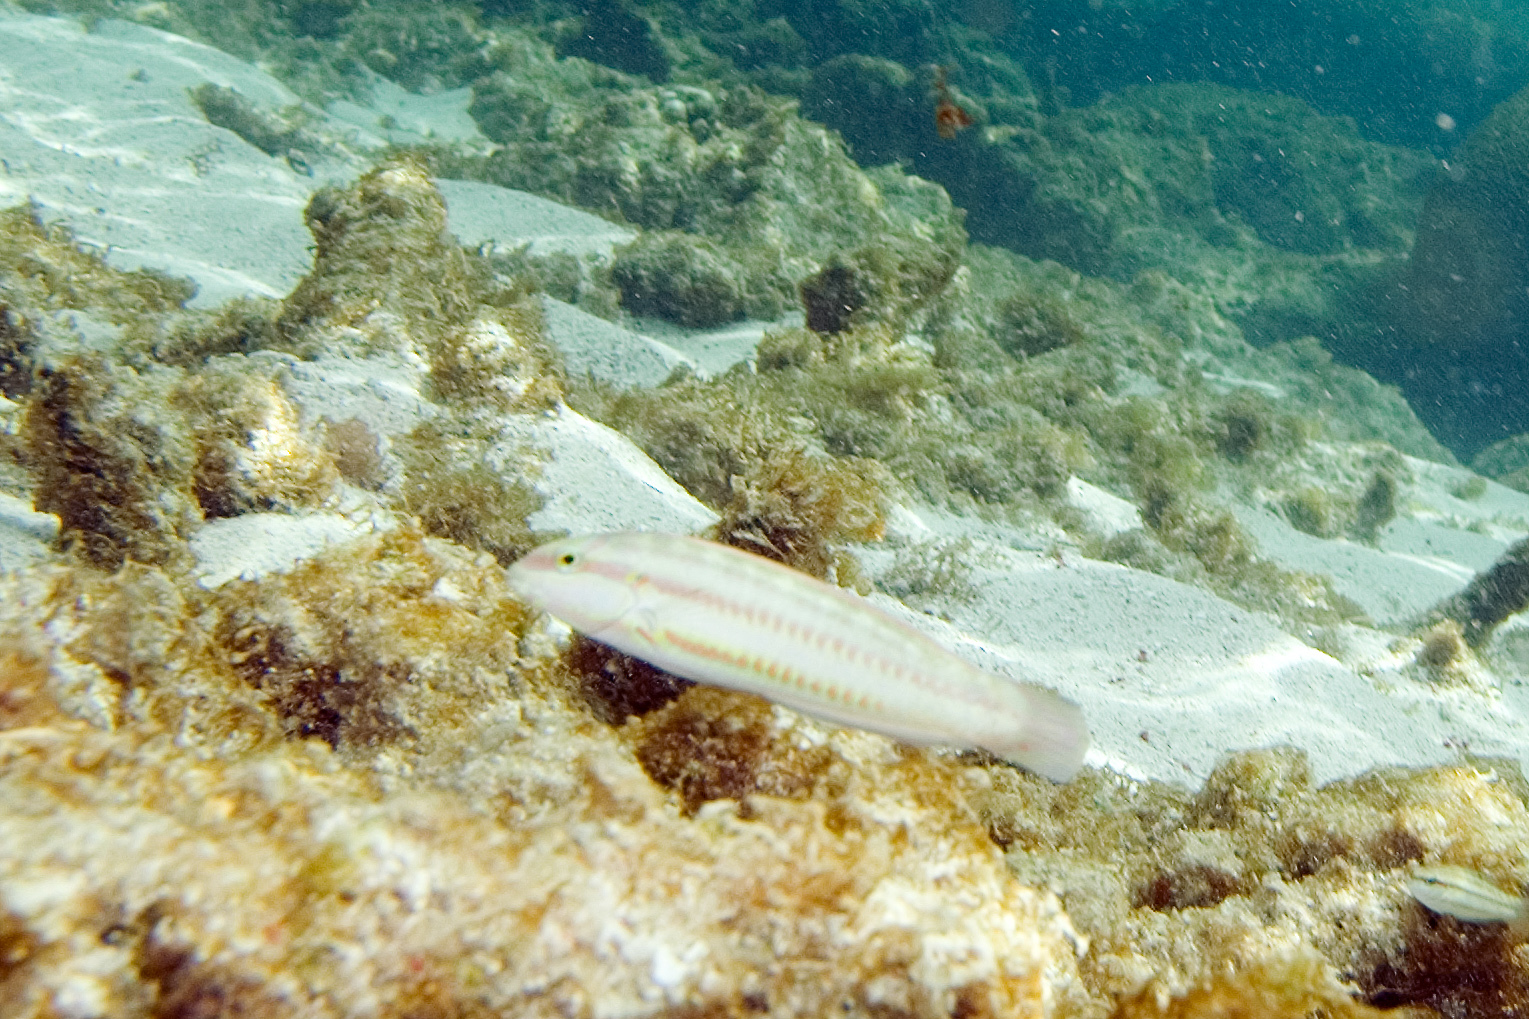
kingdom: Animalia
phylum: Chordata
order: Perciformes
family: Labridae
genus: Halichoeres
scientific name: Halichoeres bivittatus
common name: Slippery dick
